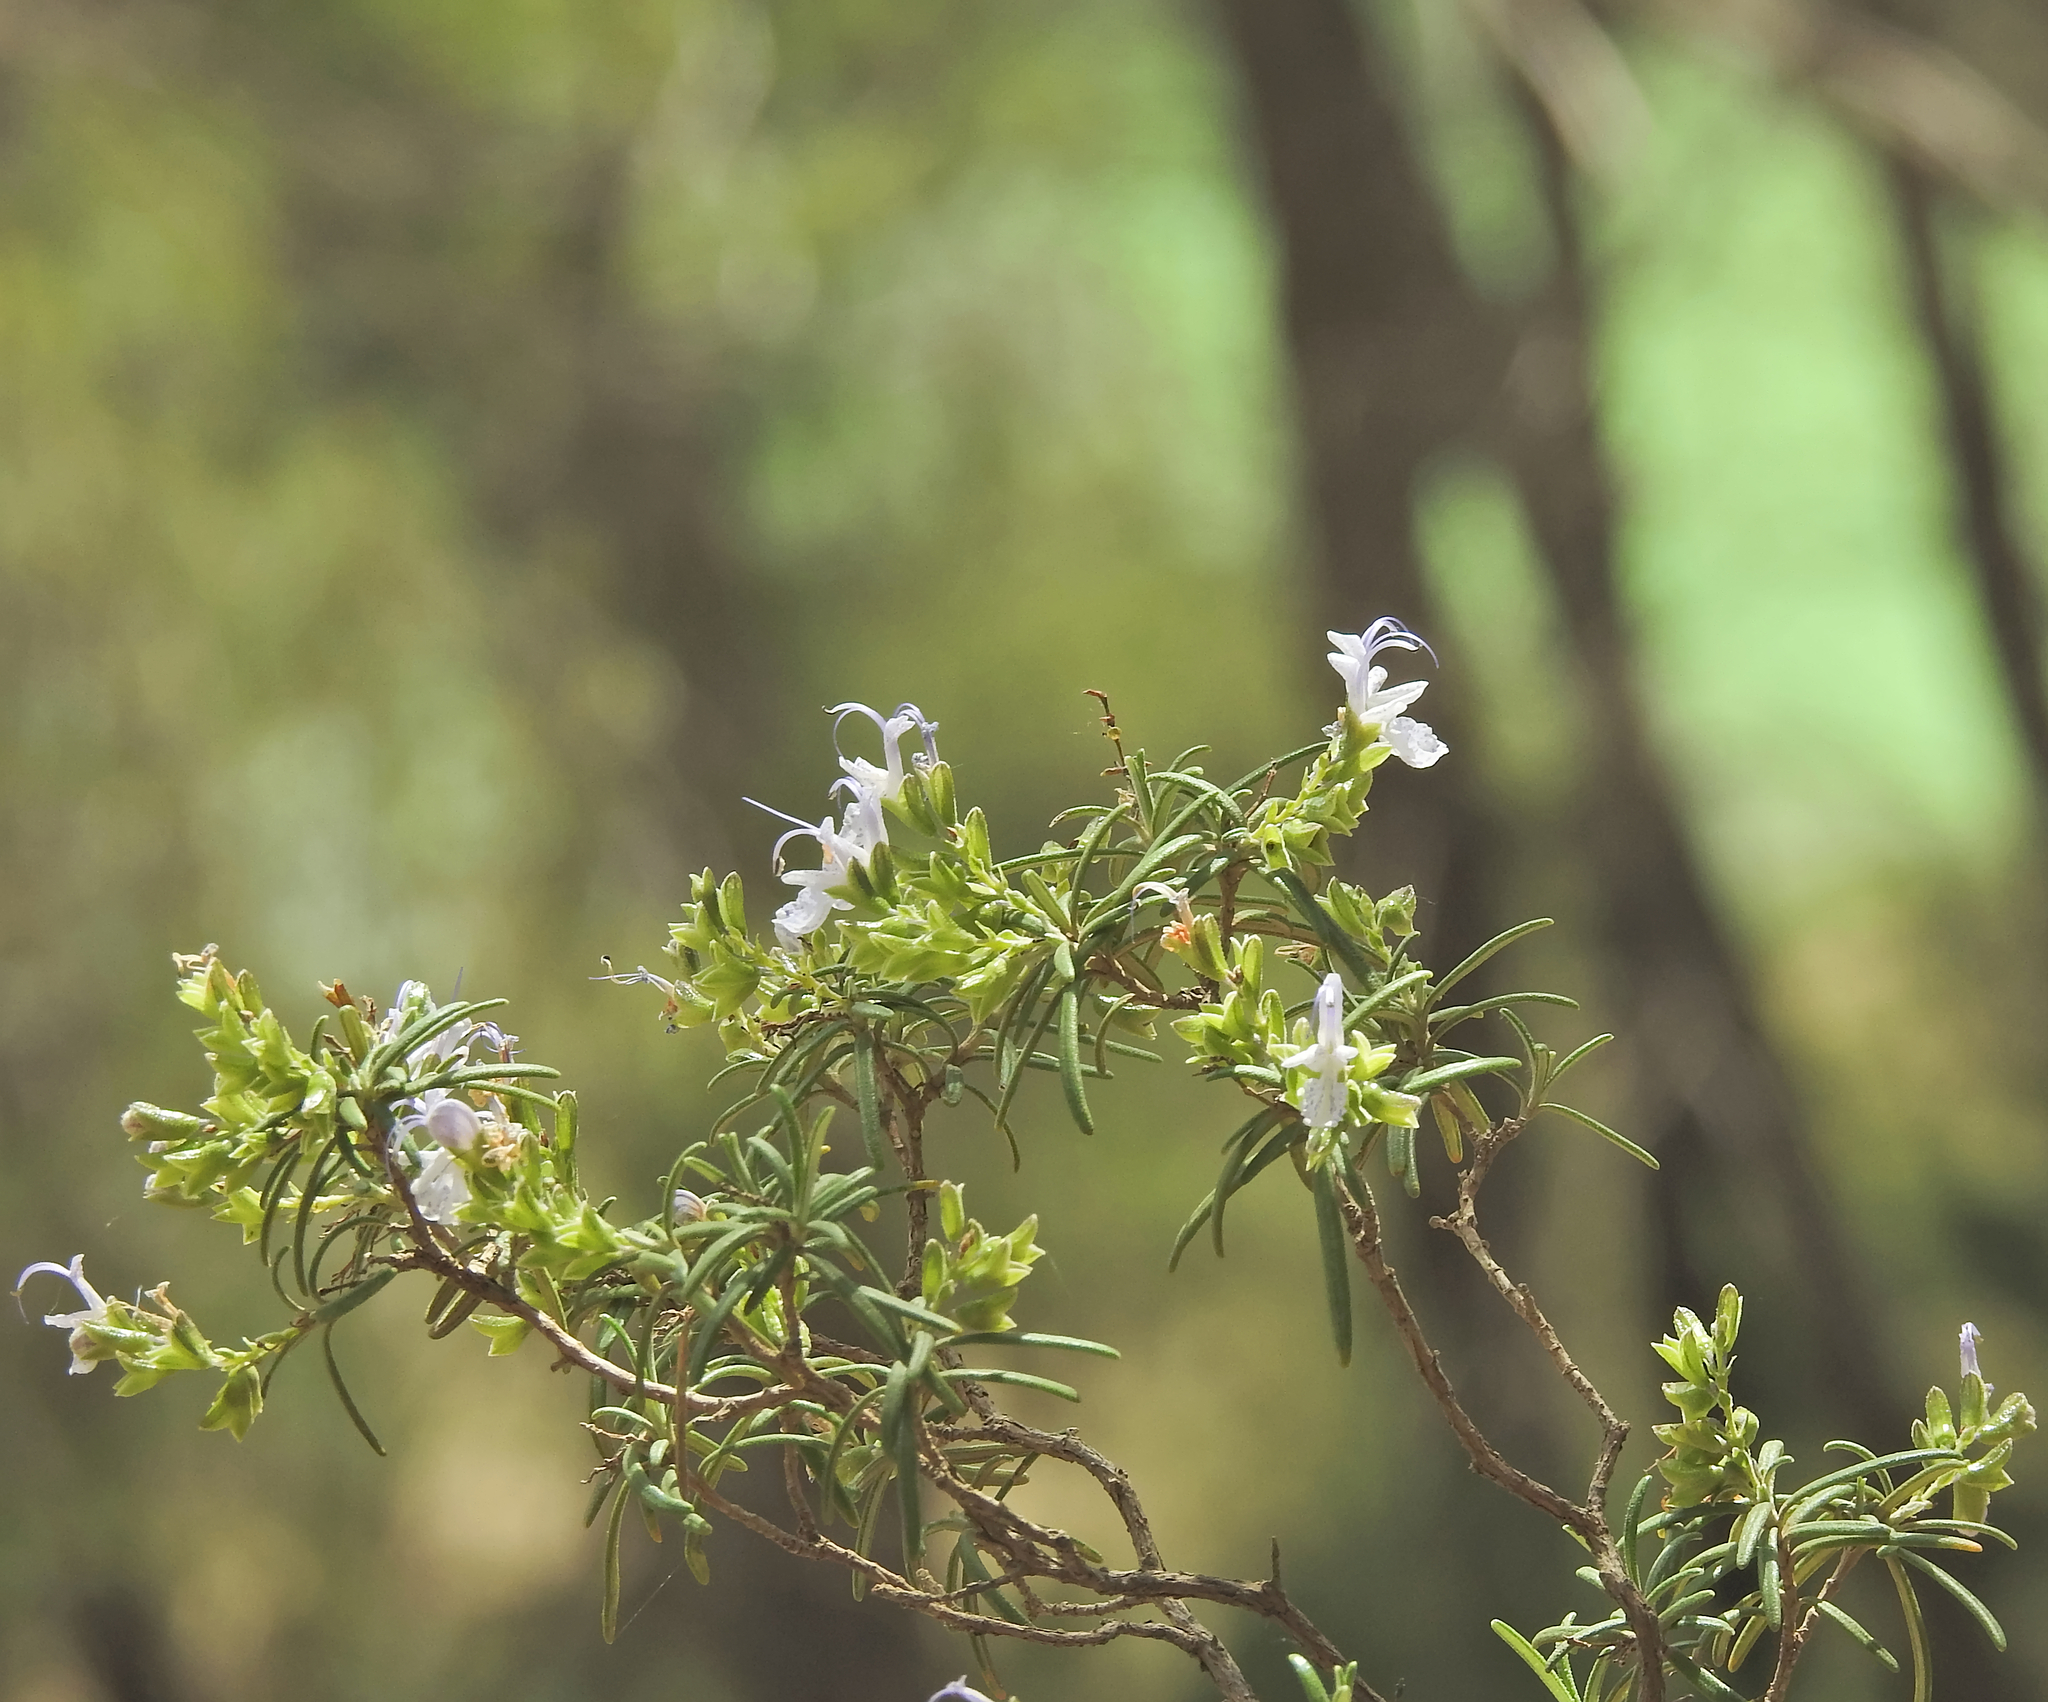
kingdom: Plantae
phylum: Tracheophyta
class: Magnoliopsida
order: Lamiales
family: Lamiaceae
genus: Salvia
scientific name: Salvia rosmarinus
